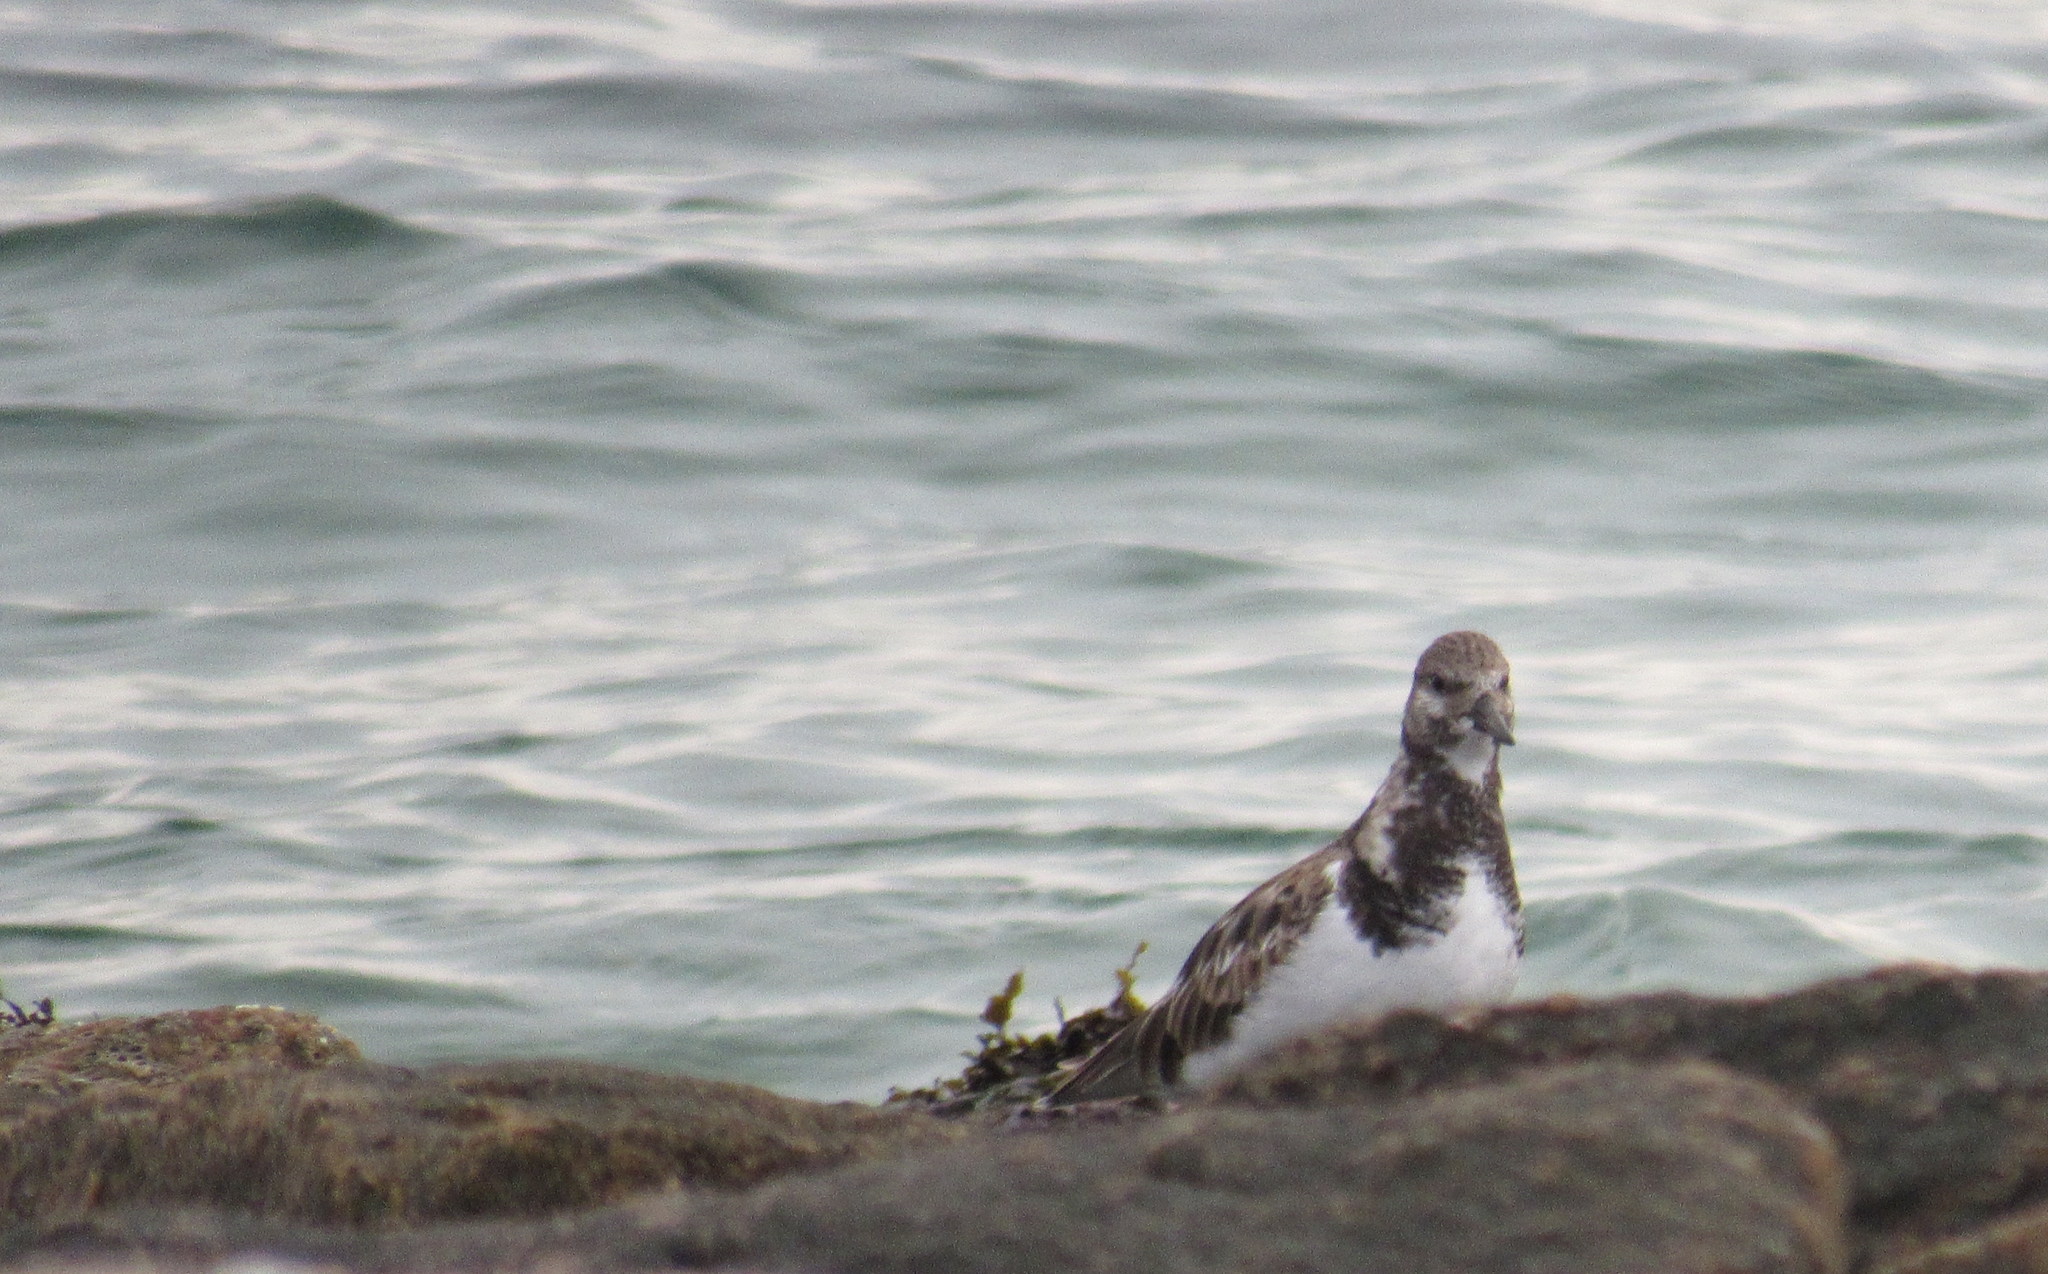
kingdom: Animalia
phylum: Chordata
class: Aves
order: Charadriiformes
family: Scolopacidae
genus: Arenaria
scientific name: Arenaria interpres
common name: Ruddy turnstone
